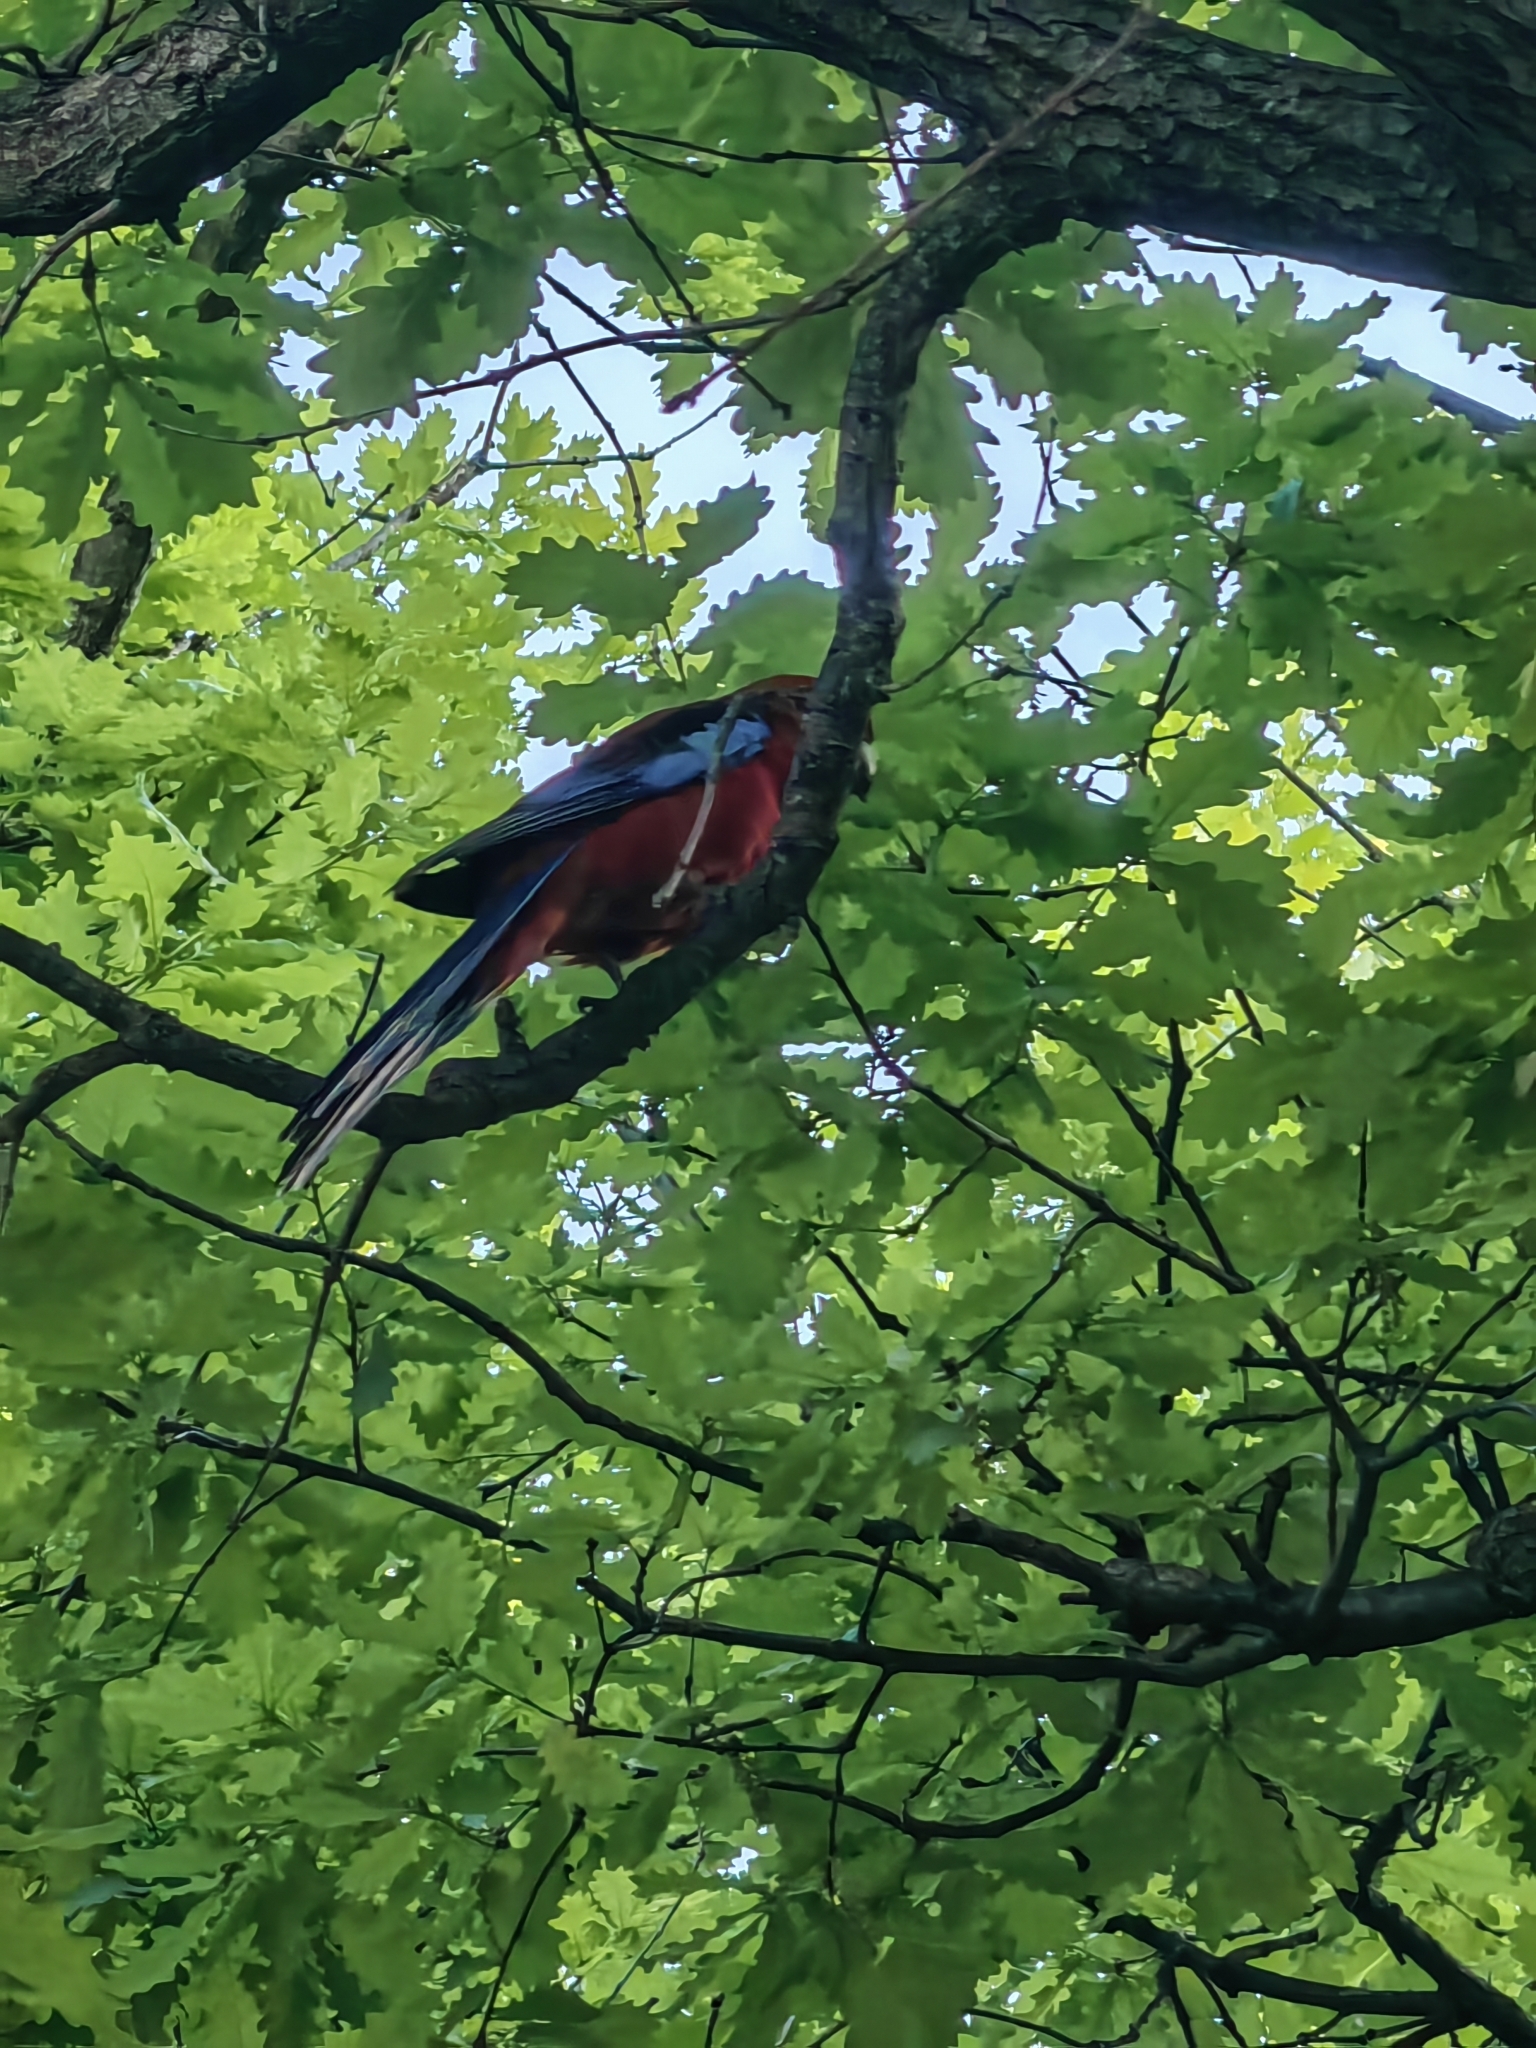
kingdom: Animalia
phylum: Chordata
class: Aves
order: Psittaciformes
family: Psittacidae
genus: Platycercus
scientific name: Platycercus elegans
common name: Crimson rosella
